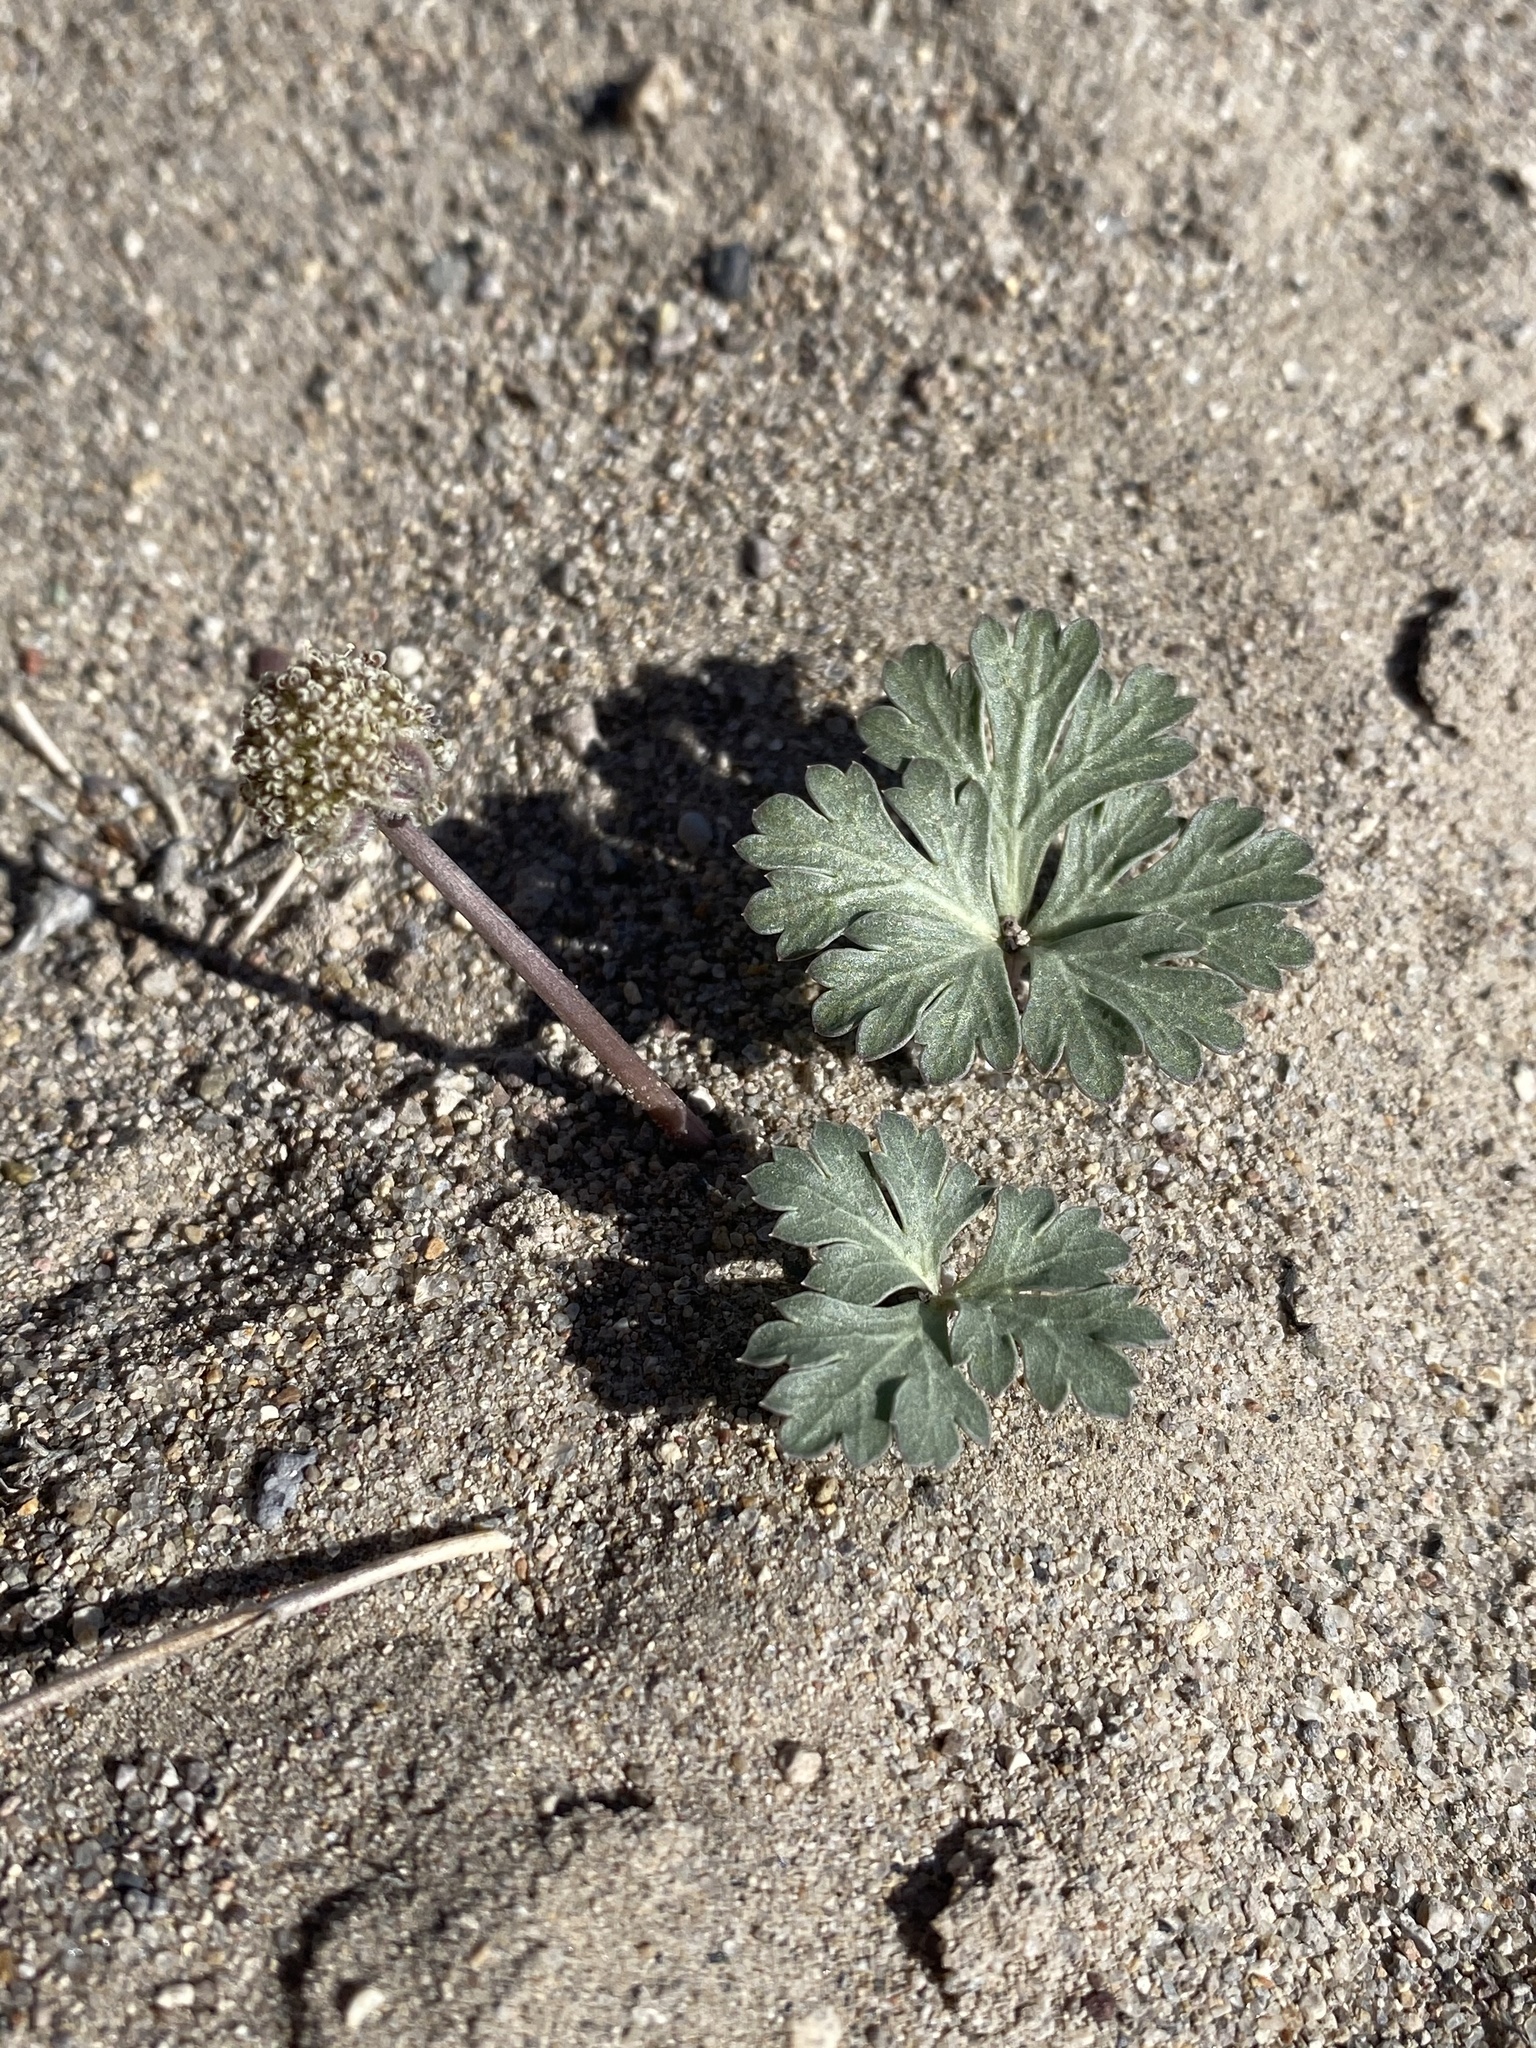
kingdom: Plantae
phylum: Tracheophyta
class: Magnoliopsida
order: Apiales
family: Apiaceae
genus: Cymopterus
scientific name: Cymopterus ripleyi
